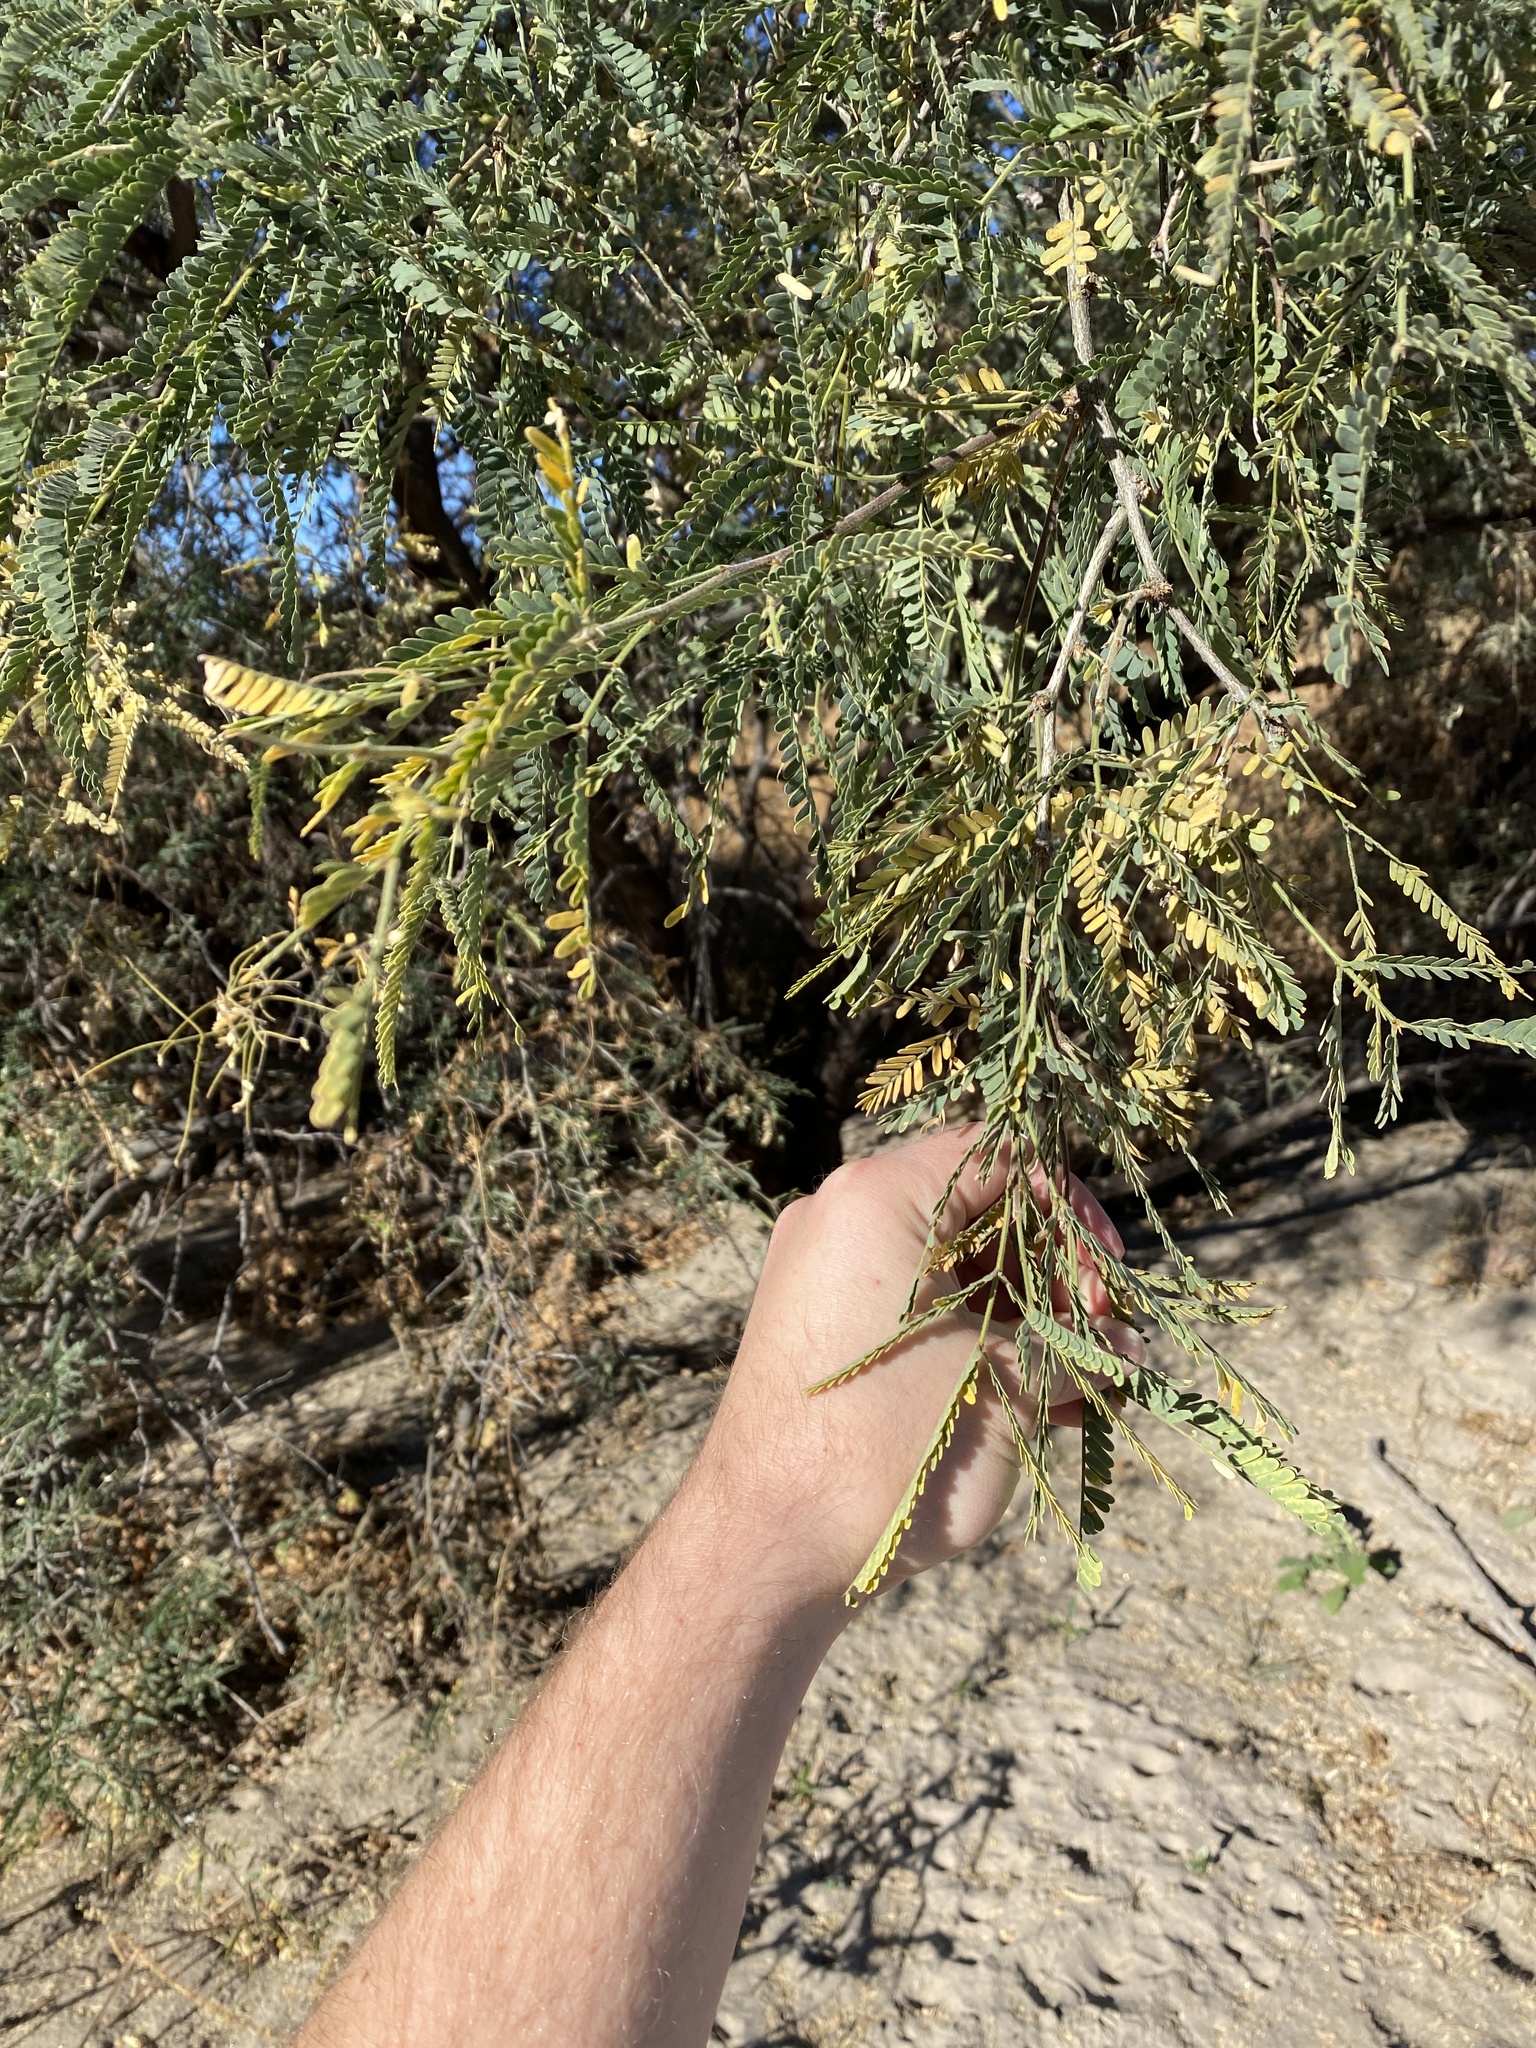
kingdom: Plantae
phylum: Tracheophyta
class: Magnoliopsida
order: Fabales
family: Fabaceae
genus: Prosopis
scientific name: Prosopis velutina
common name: Velvet mesquite
